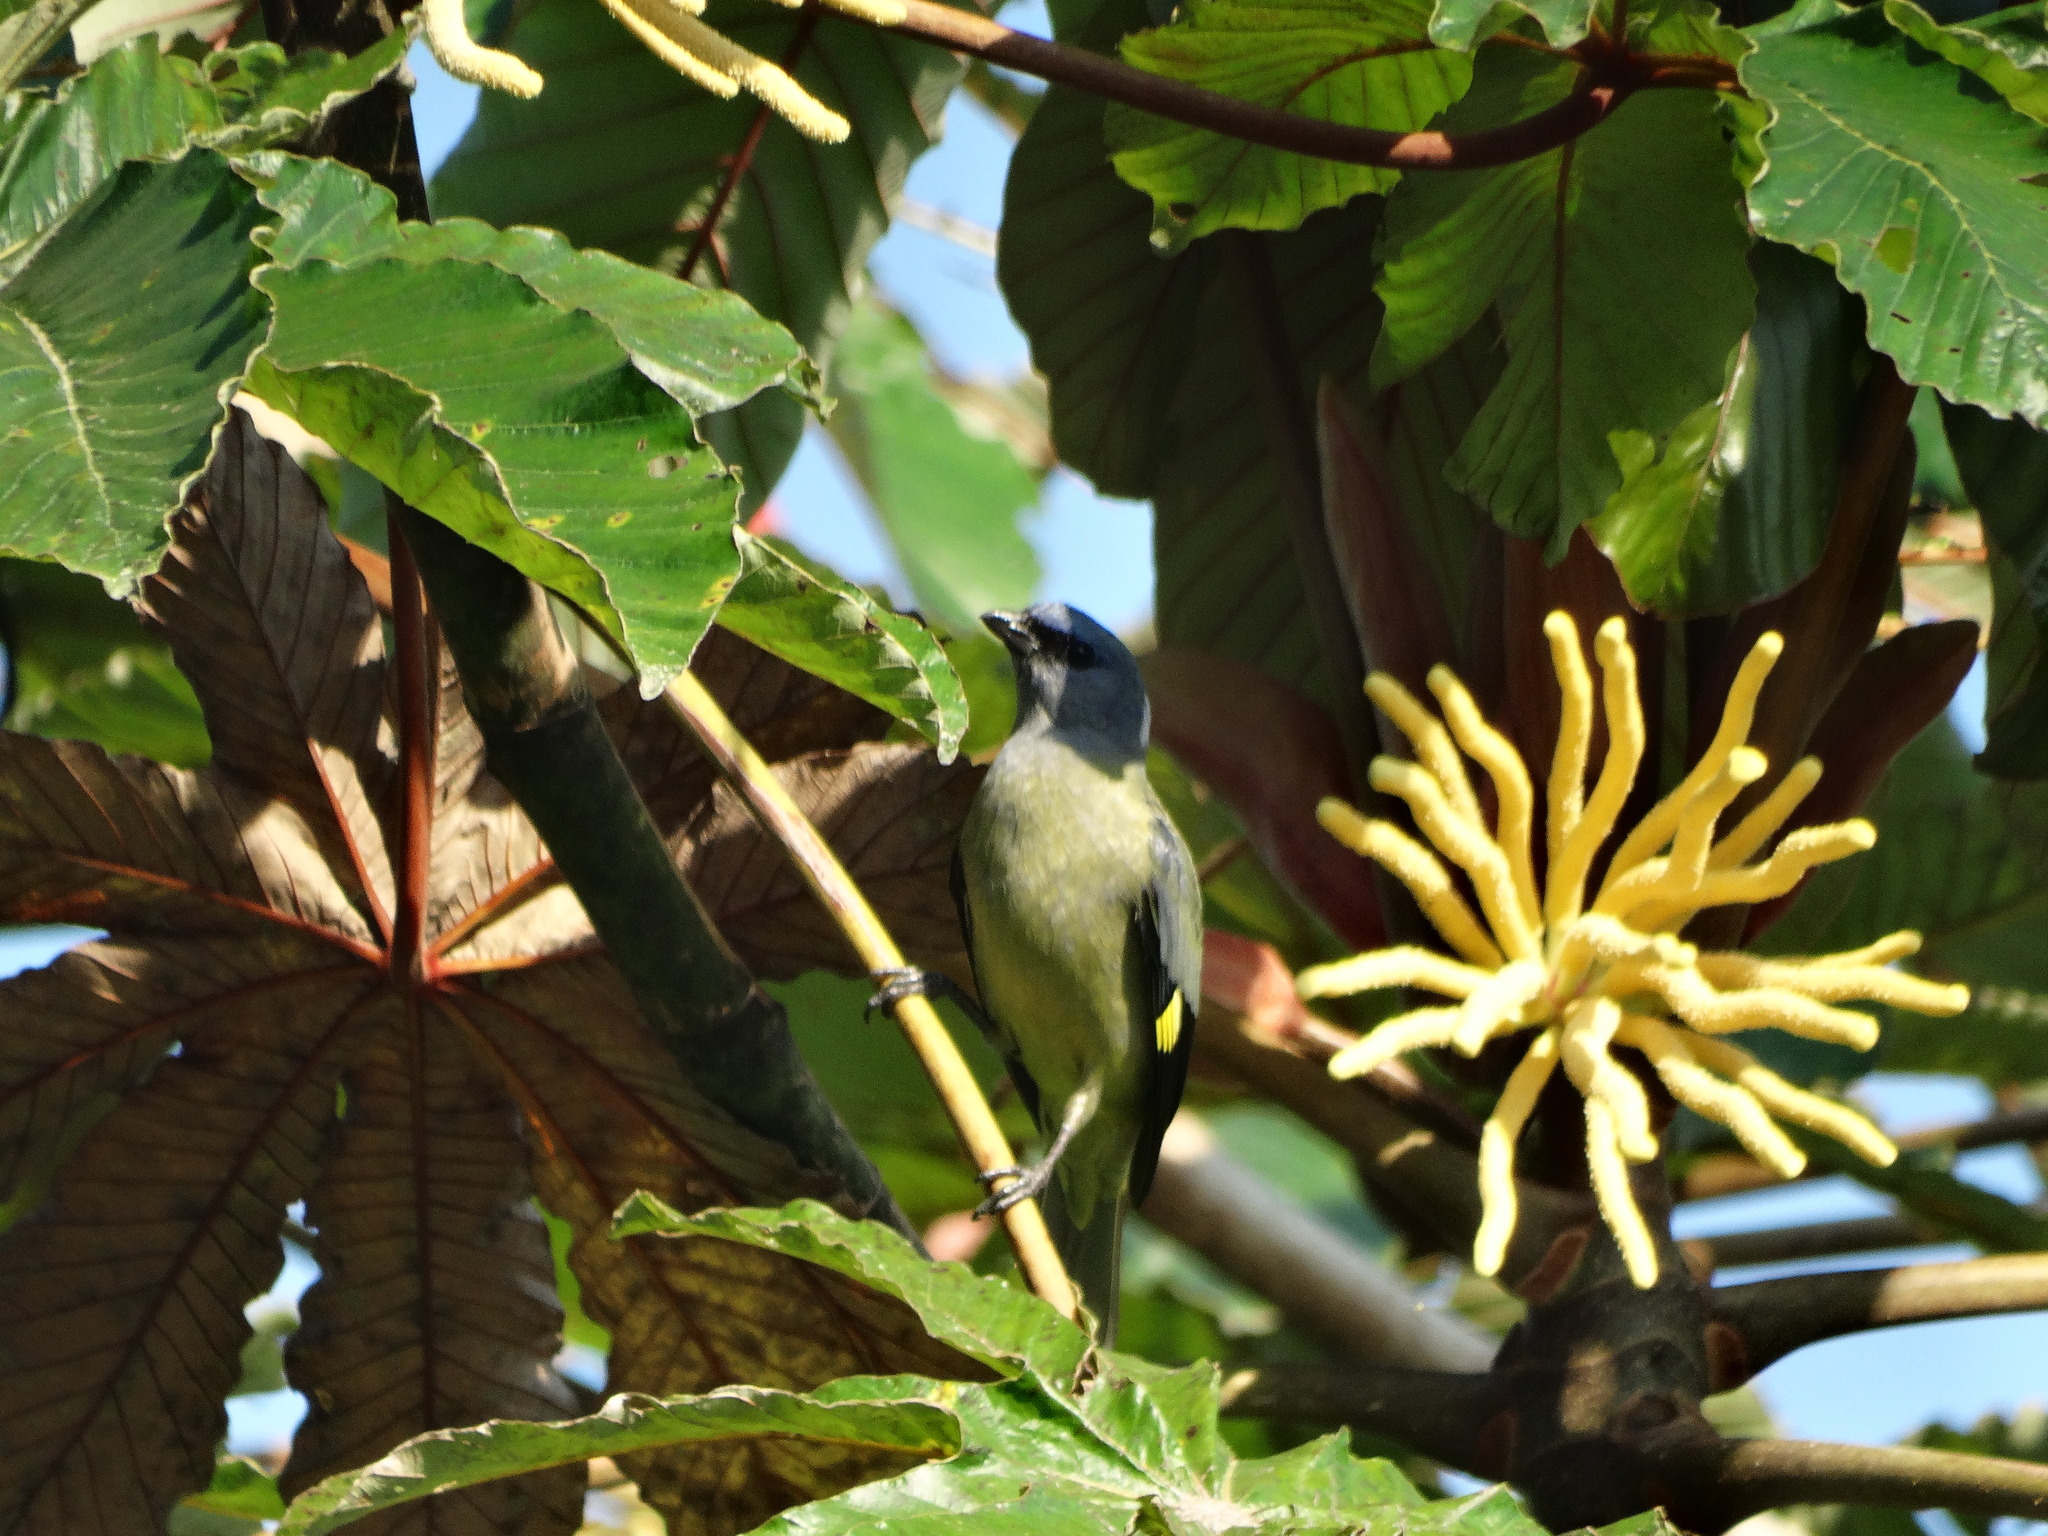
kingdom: Animalia
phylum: Chordata
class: Aves
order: Passeriformes
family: Thraupidae
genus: Thraupis
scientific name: Thraupis abbas
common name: Yellow-winged tanager
